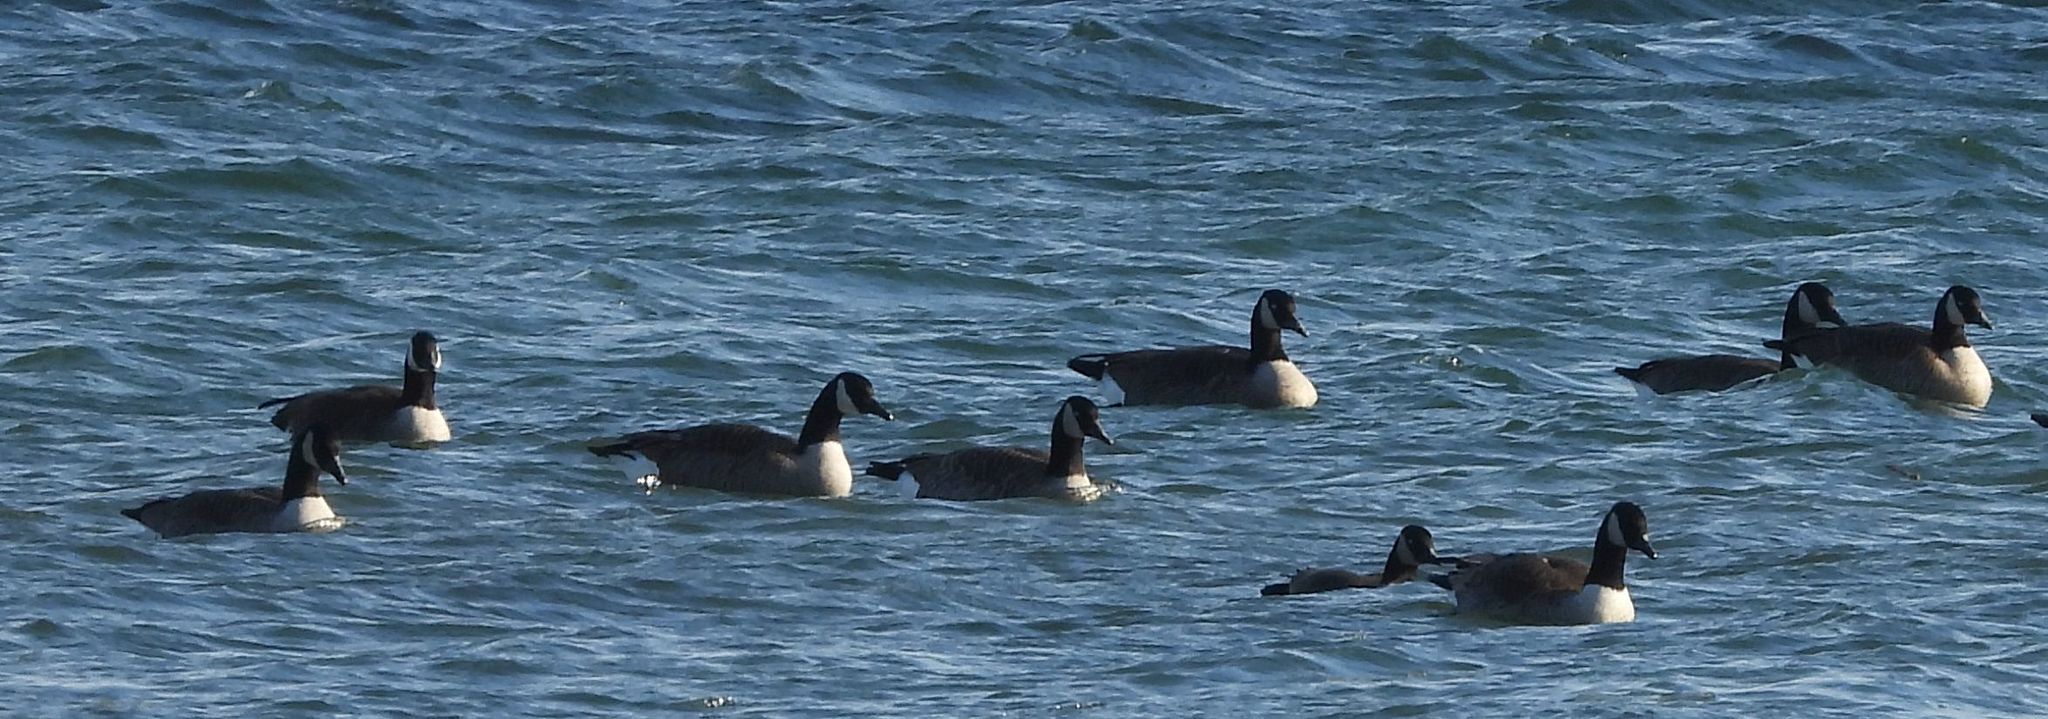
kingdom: Animalia
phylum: Chordata
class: Aves
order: Anseriformes
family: Anatidae
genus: Branta
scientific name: Branta canadensis
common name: Canada goose
